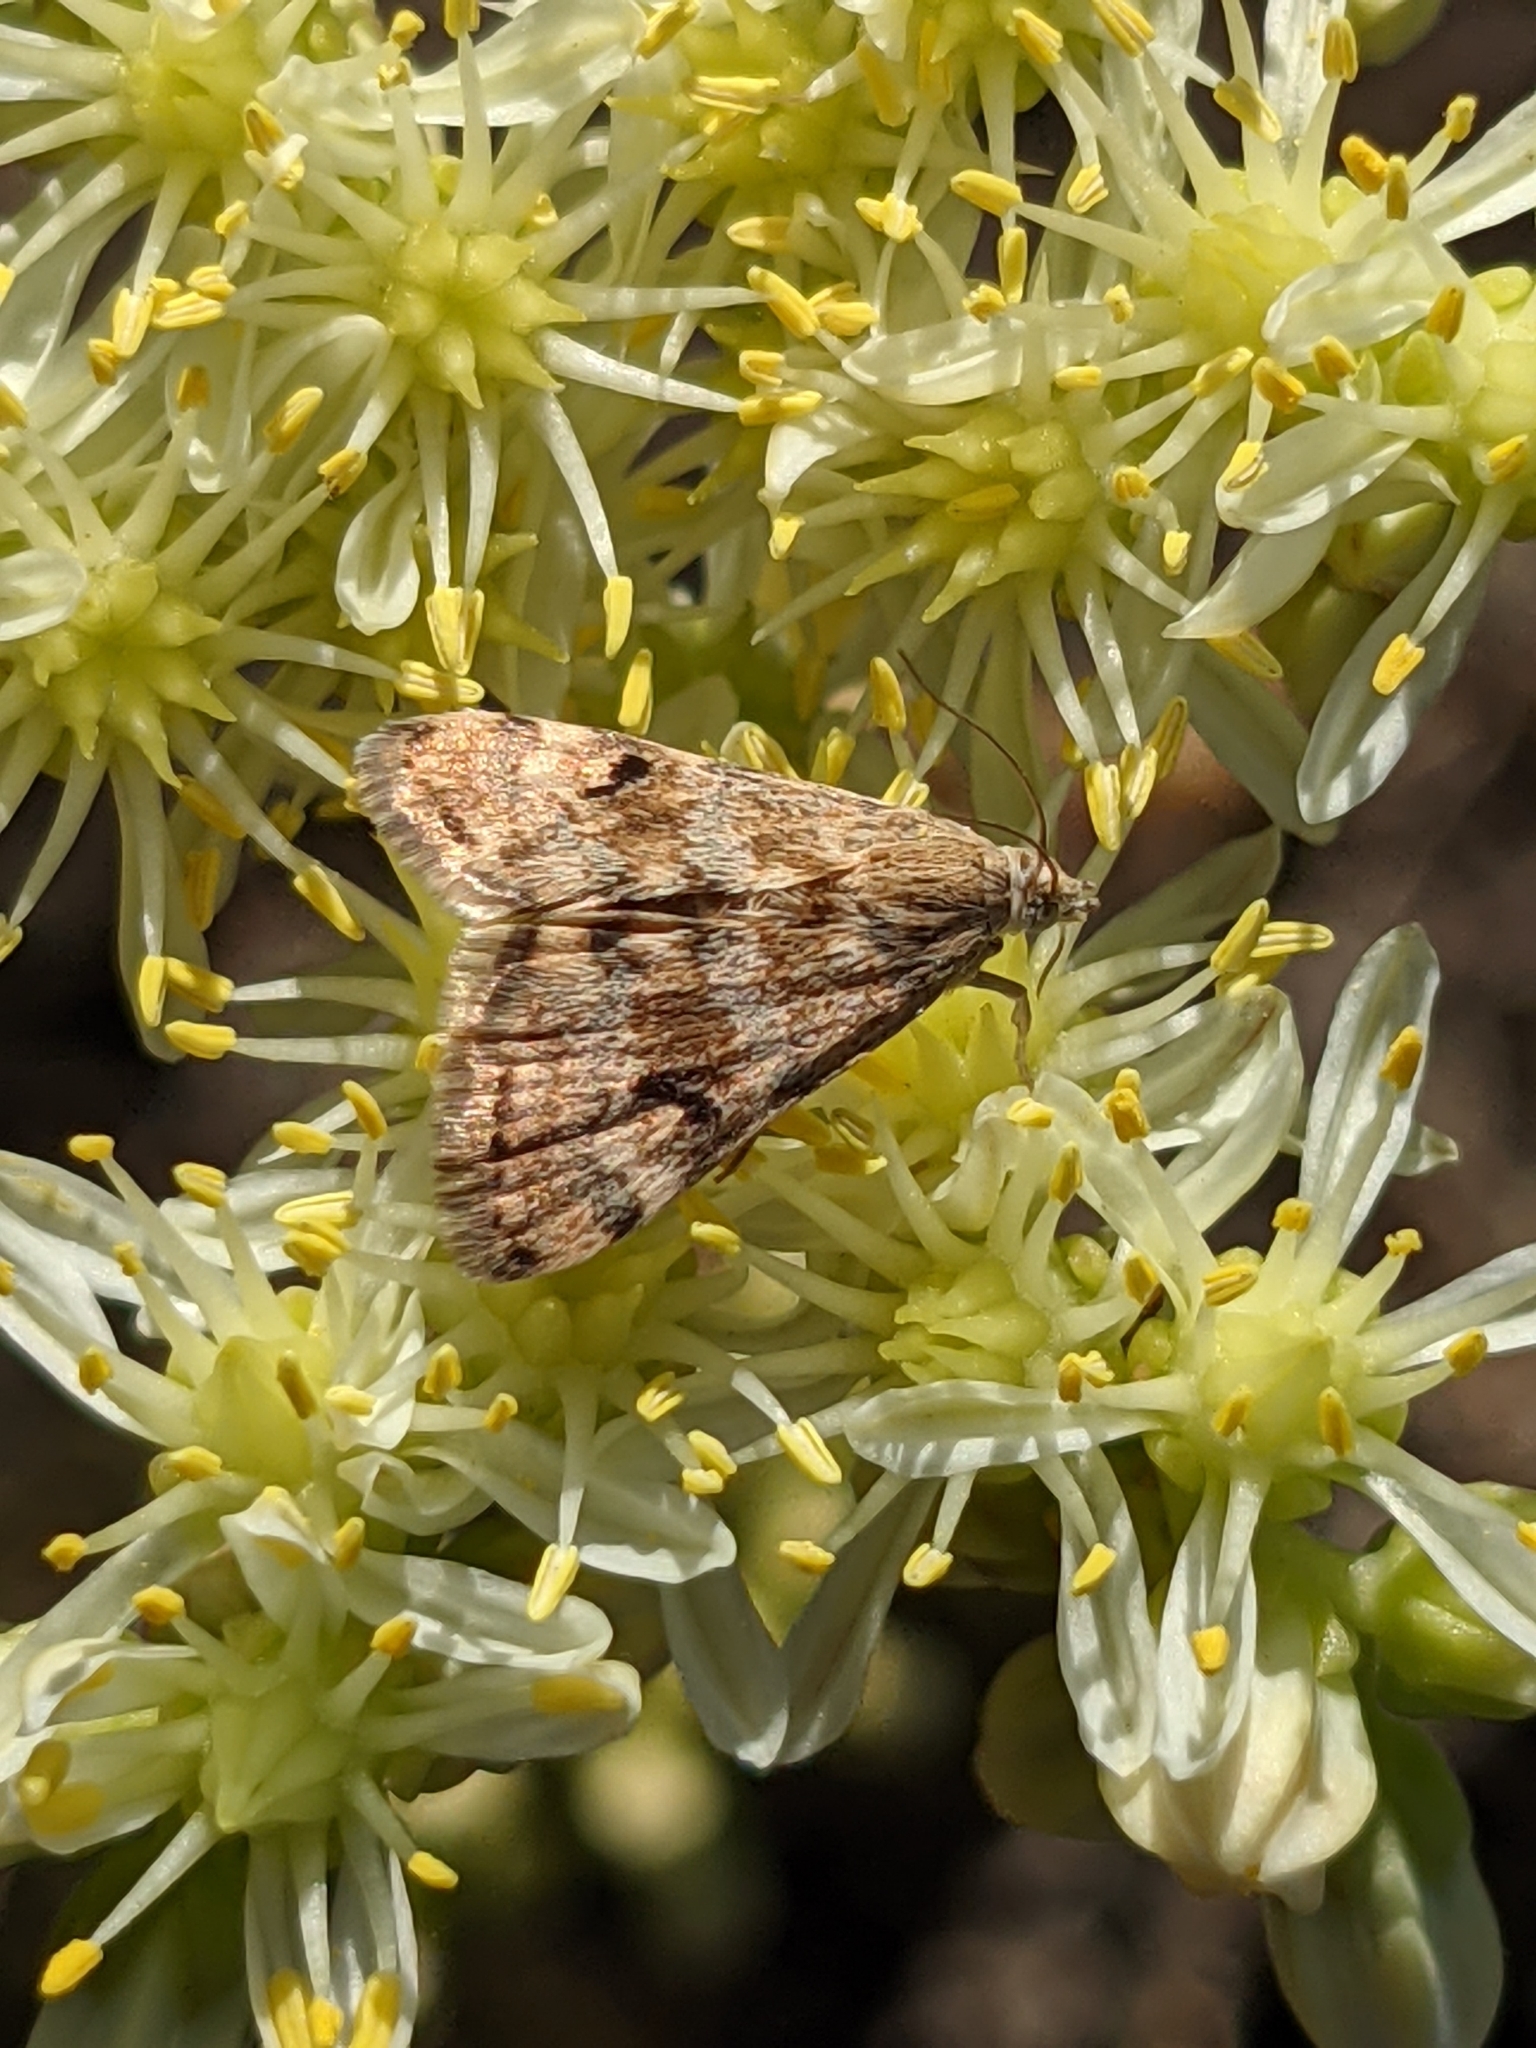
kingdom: Animalia
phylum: Arthropoda
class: Insecta
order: Lepidoptera
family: Crambidae
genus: Noctuelia
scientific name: Noctuelia Aporodes floralis
